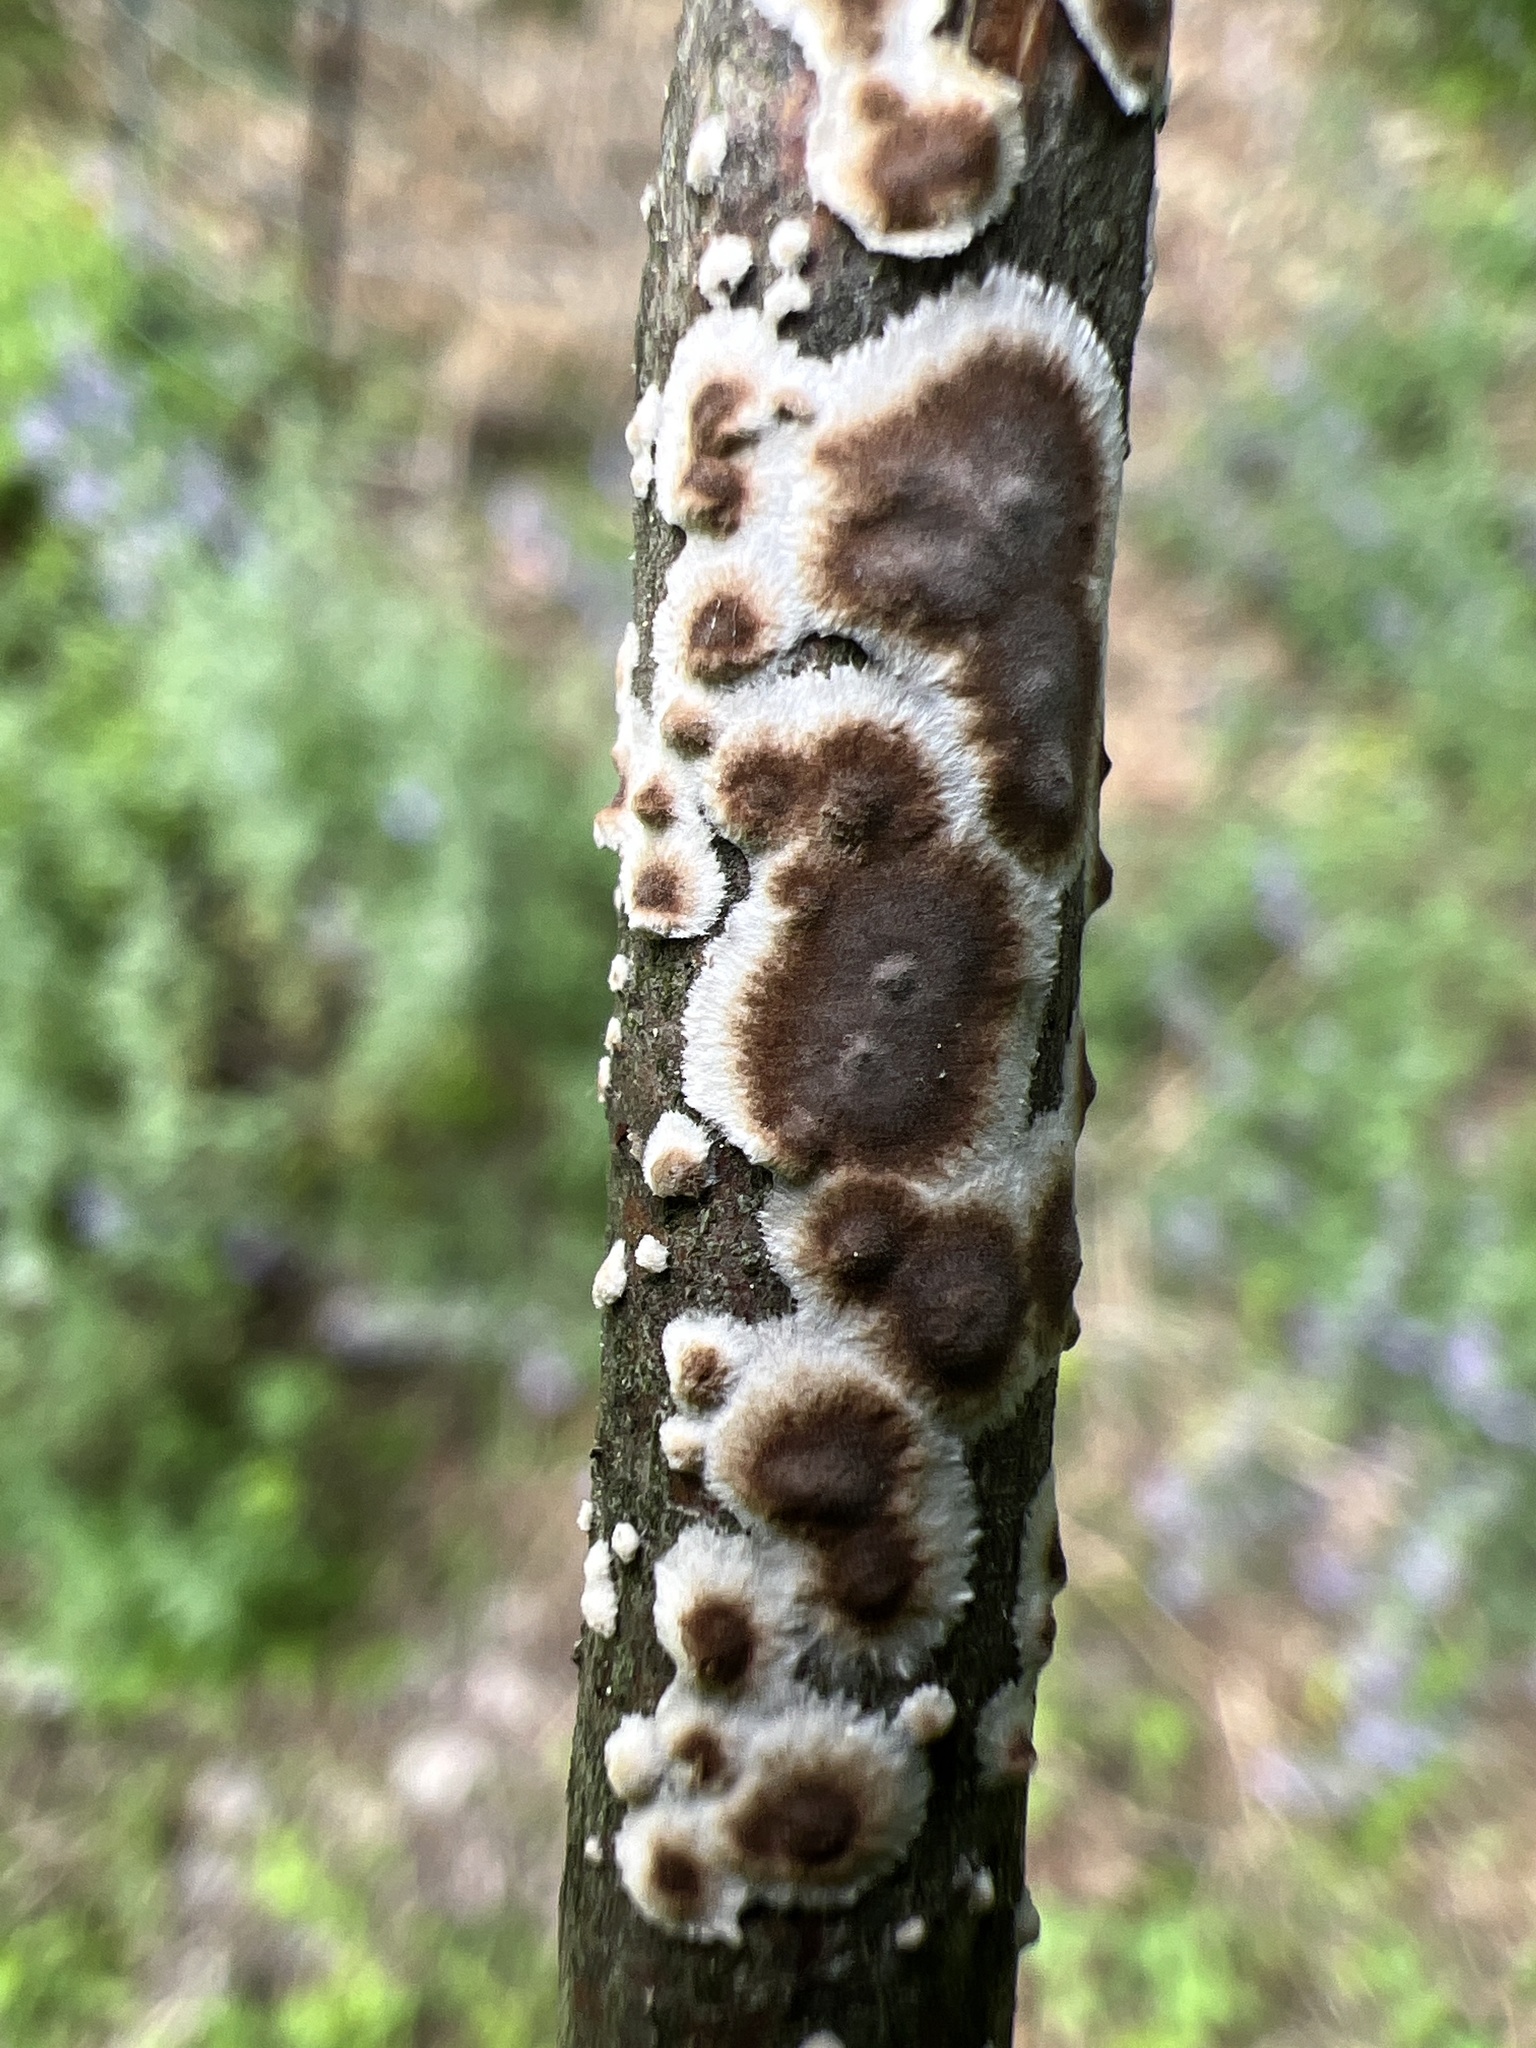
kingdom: Fungi
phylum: Basidiomycota
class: Agaricomycetes
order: Russulales
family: Peniophoraceae
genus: Peniophora
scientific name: Peniophora albobadia
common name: Giraffe spots
